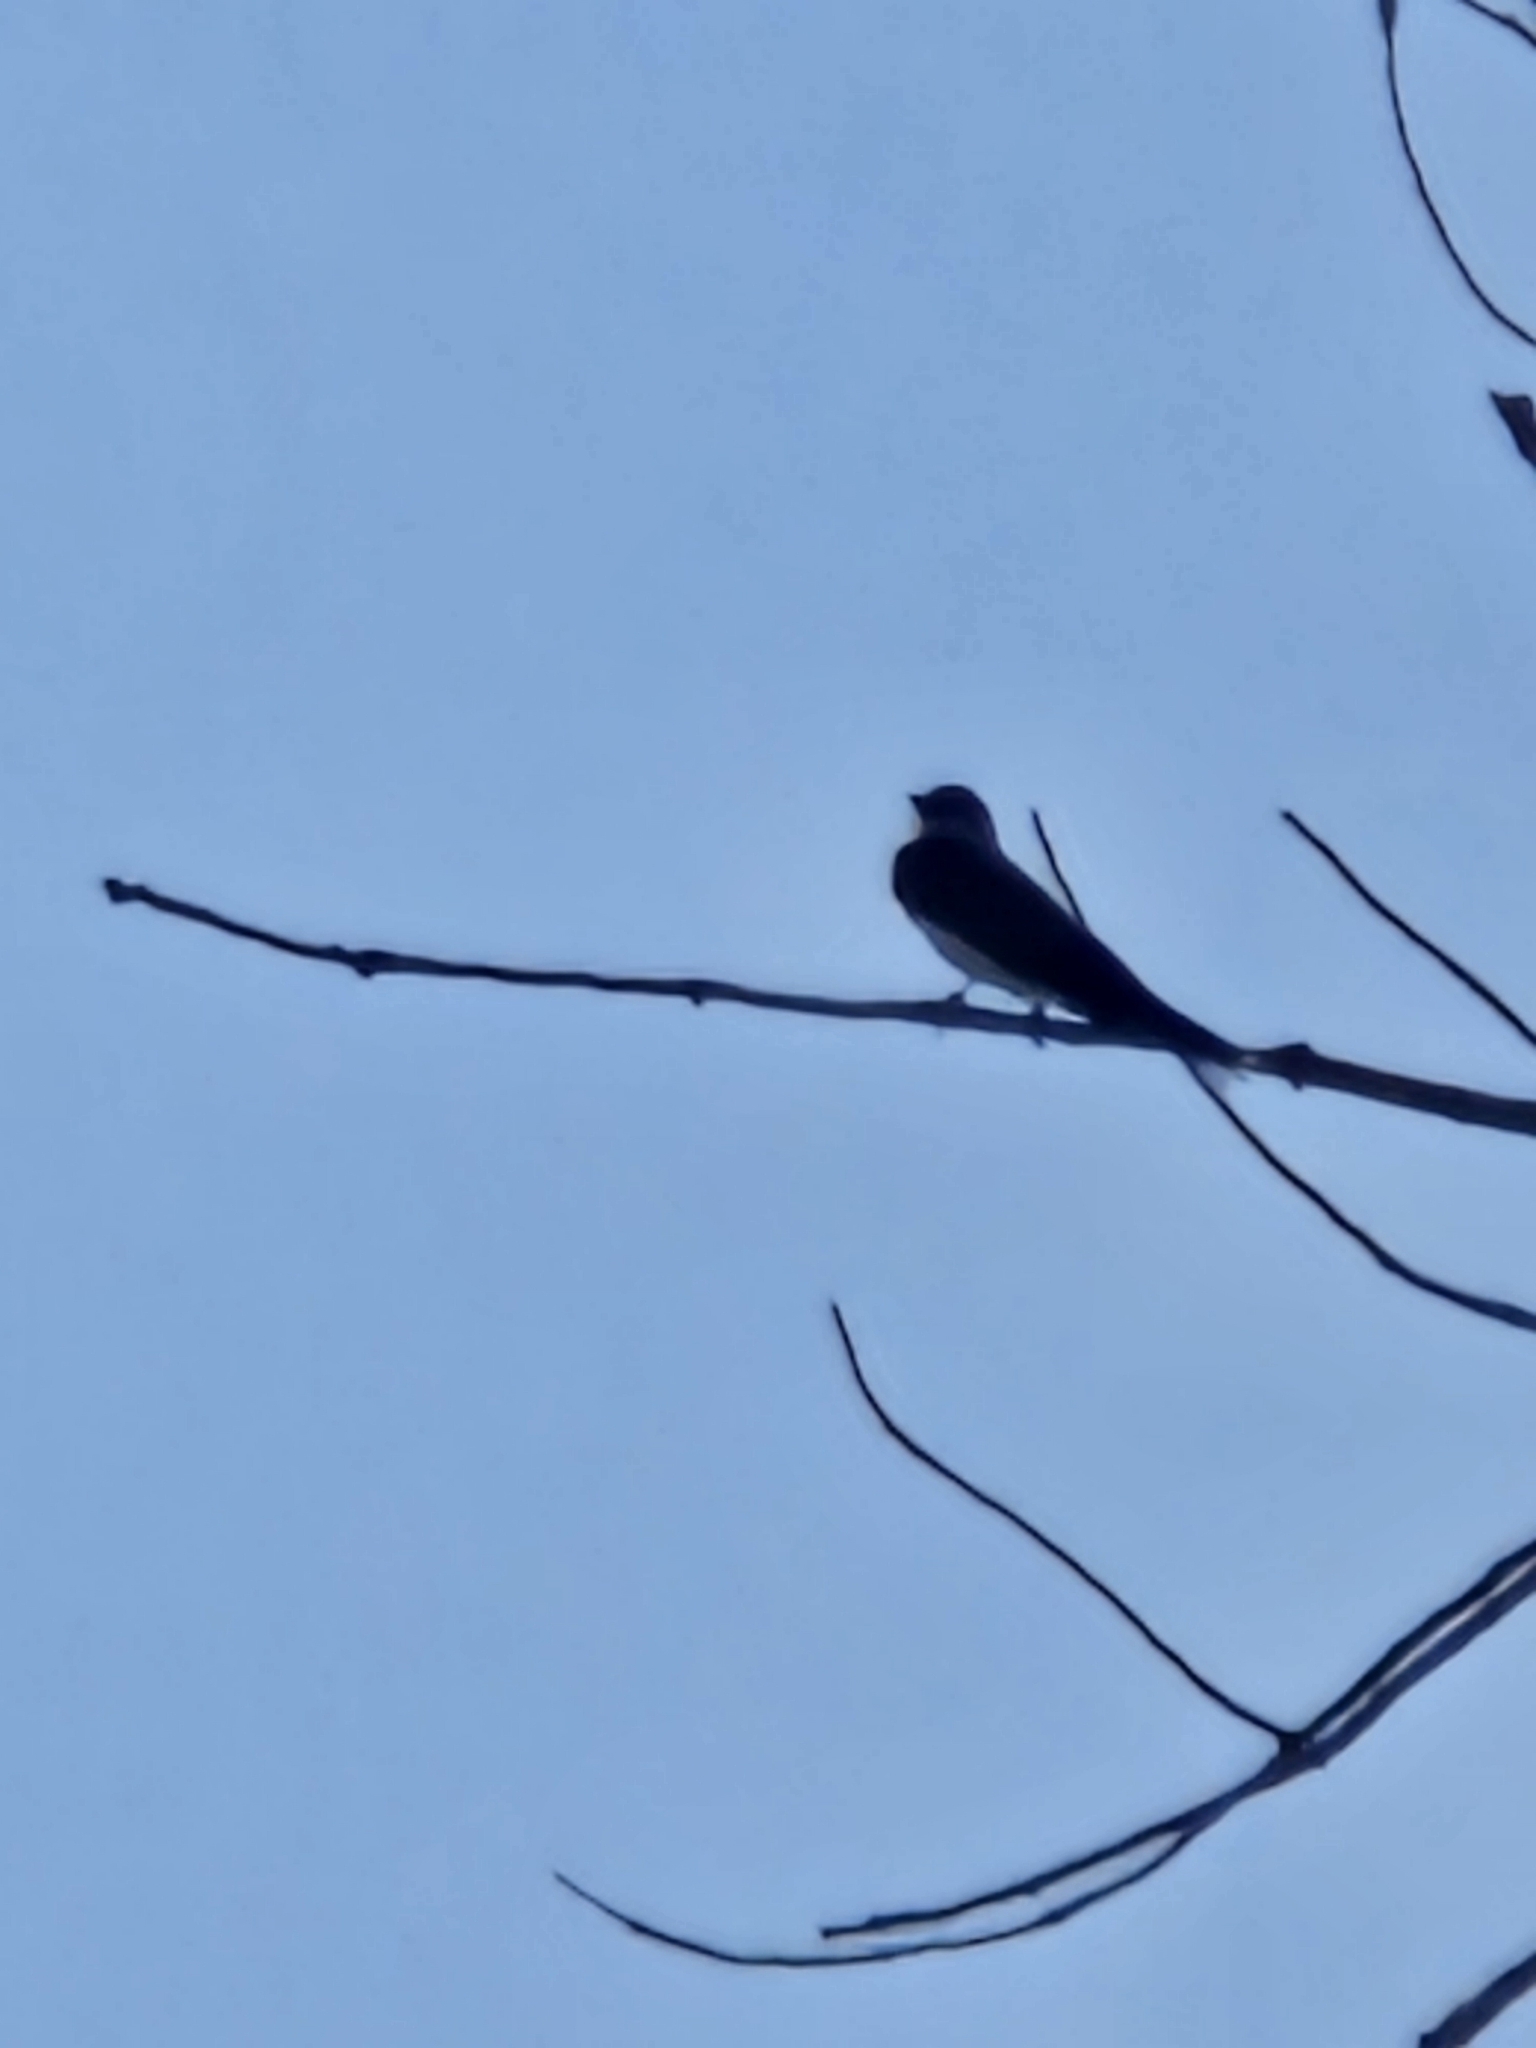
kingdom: Animalia
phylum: Chordata
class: Aves
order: Passeriformes
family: Tyrannidae
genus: Tyrannus
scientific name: Tyrannus tyrannus
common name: Eastern kingbird
